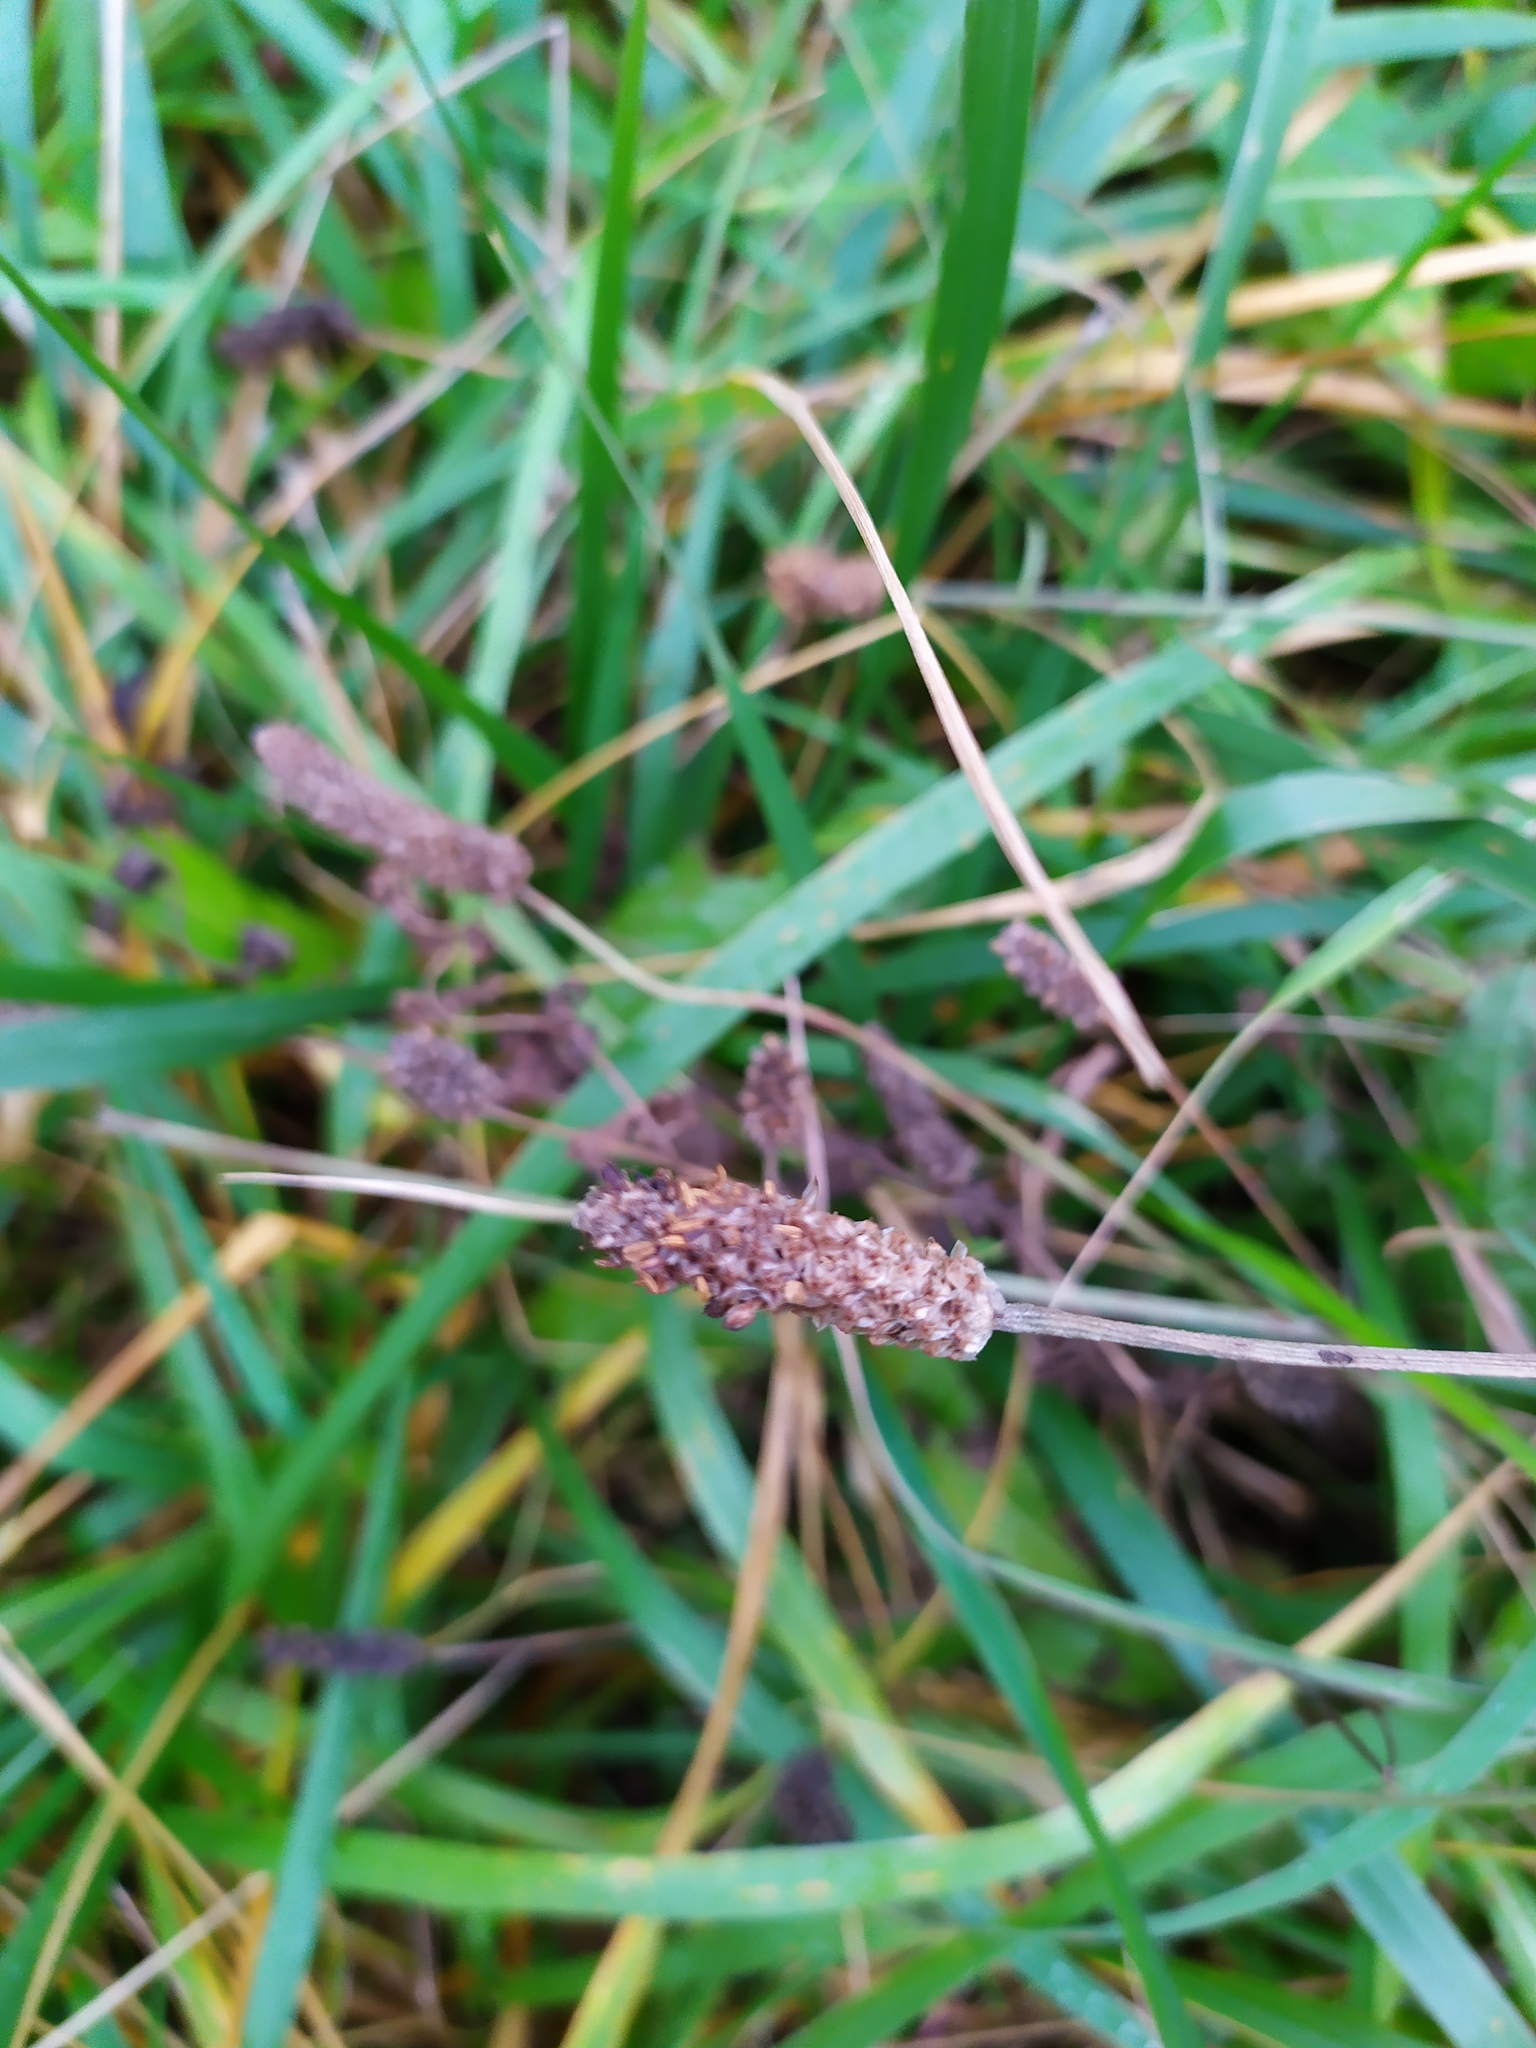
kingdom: Plantae
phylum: Tracheophyta
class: Magnoliopsida
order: Lamiales
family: Plantaginaceae
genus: Plantago
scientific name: Plantago lanceolata
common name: Ribwort plantain
